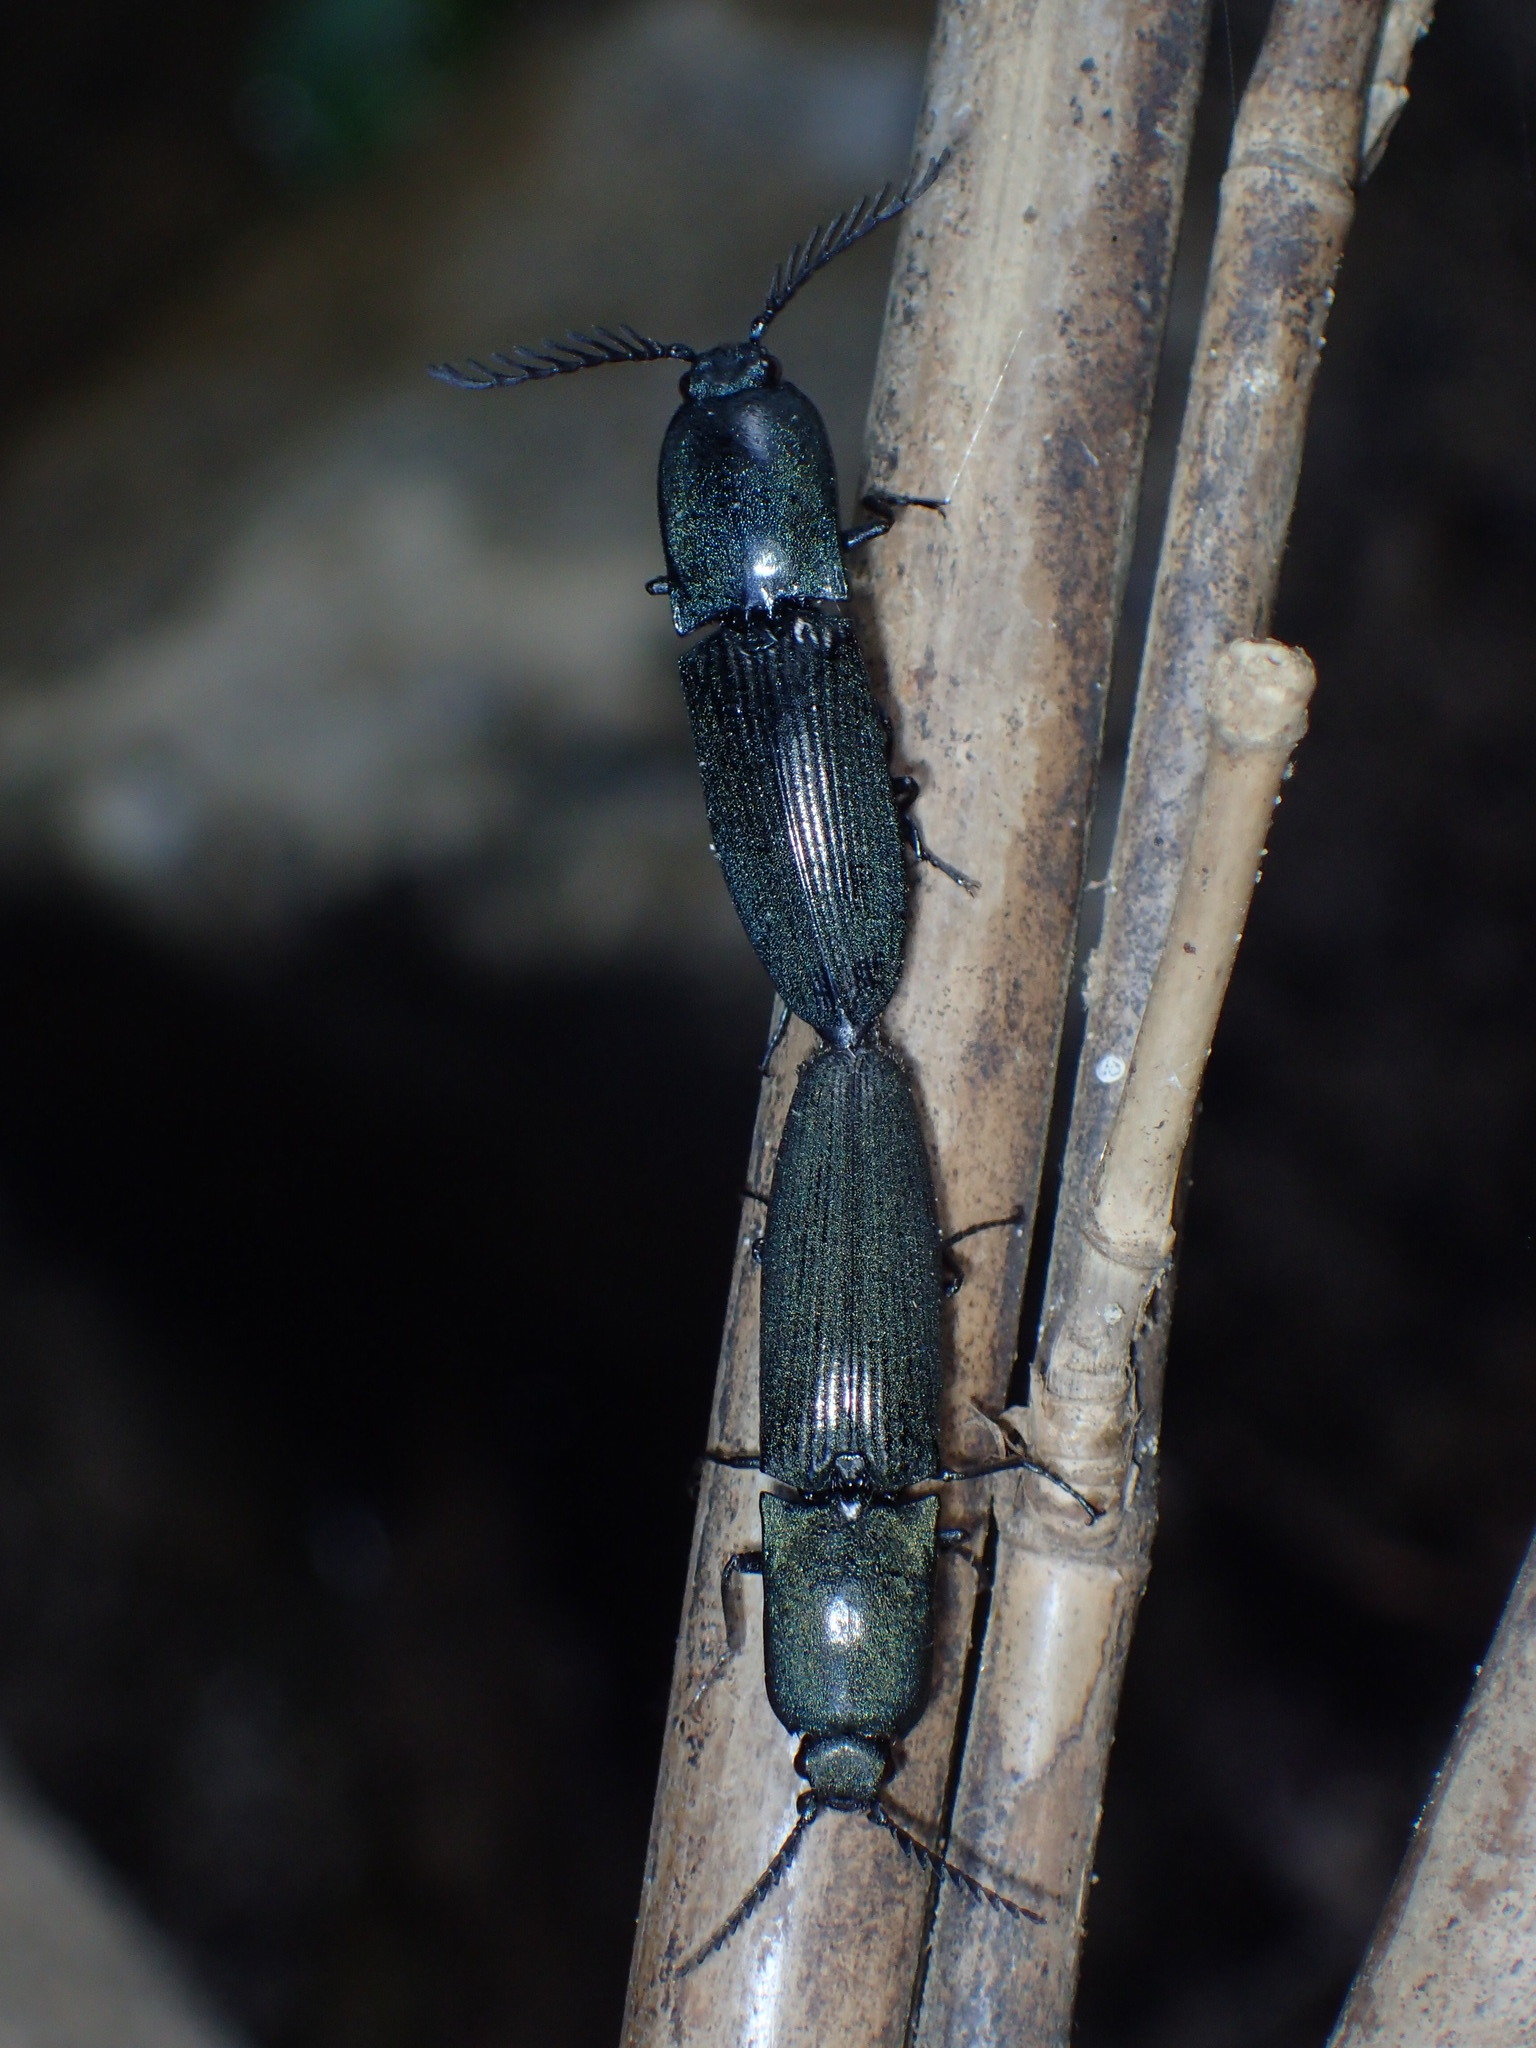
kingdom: Animalia
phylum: Arthropoda
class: Insecta
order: Coleoptera
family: Elateridae
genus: Chalcolepidius
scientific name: Chalcolepidius
